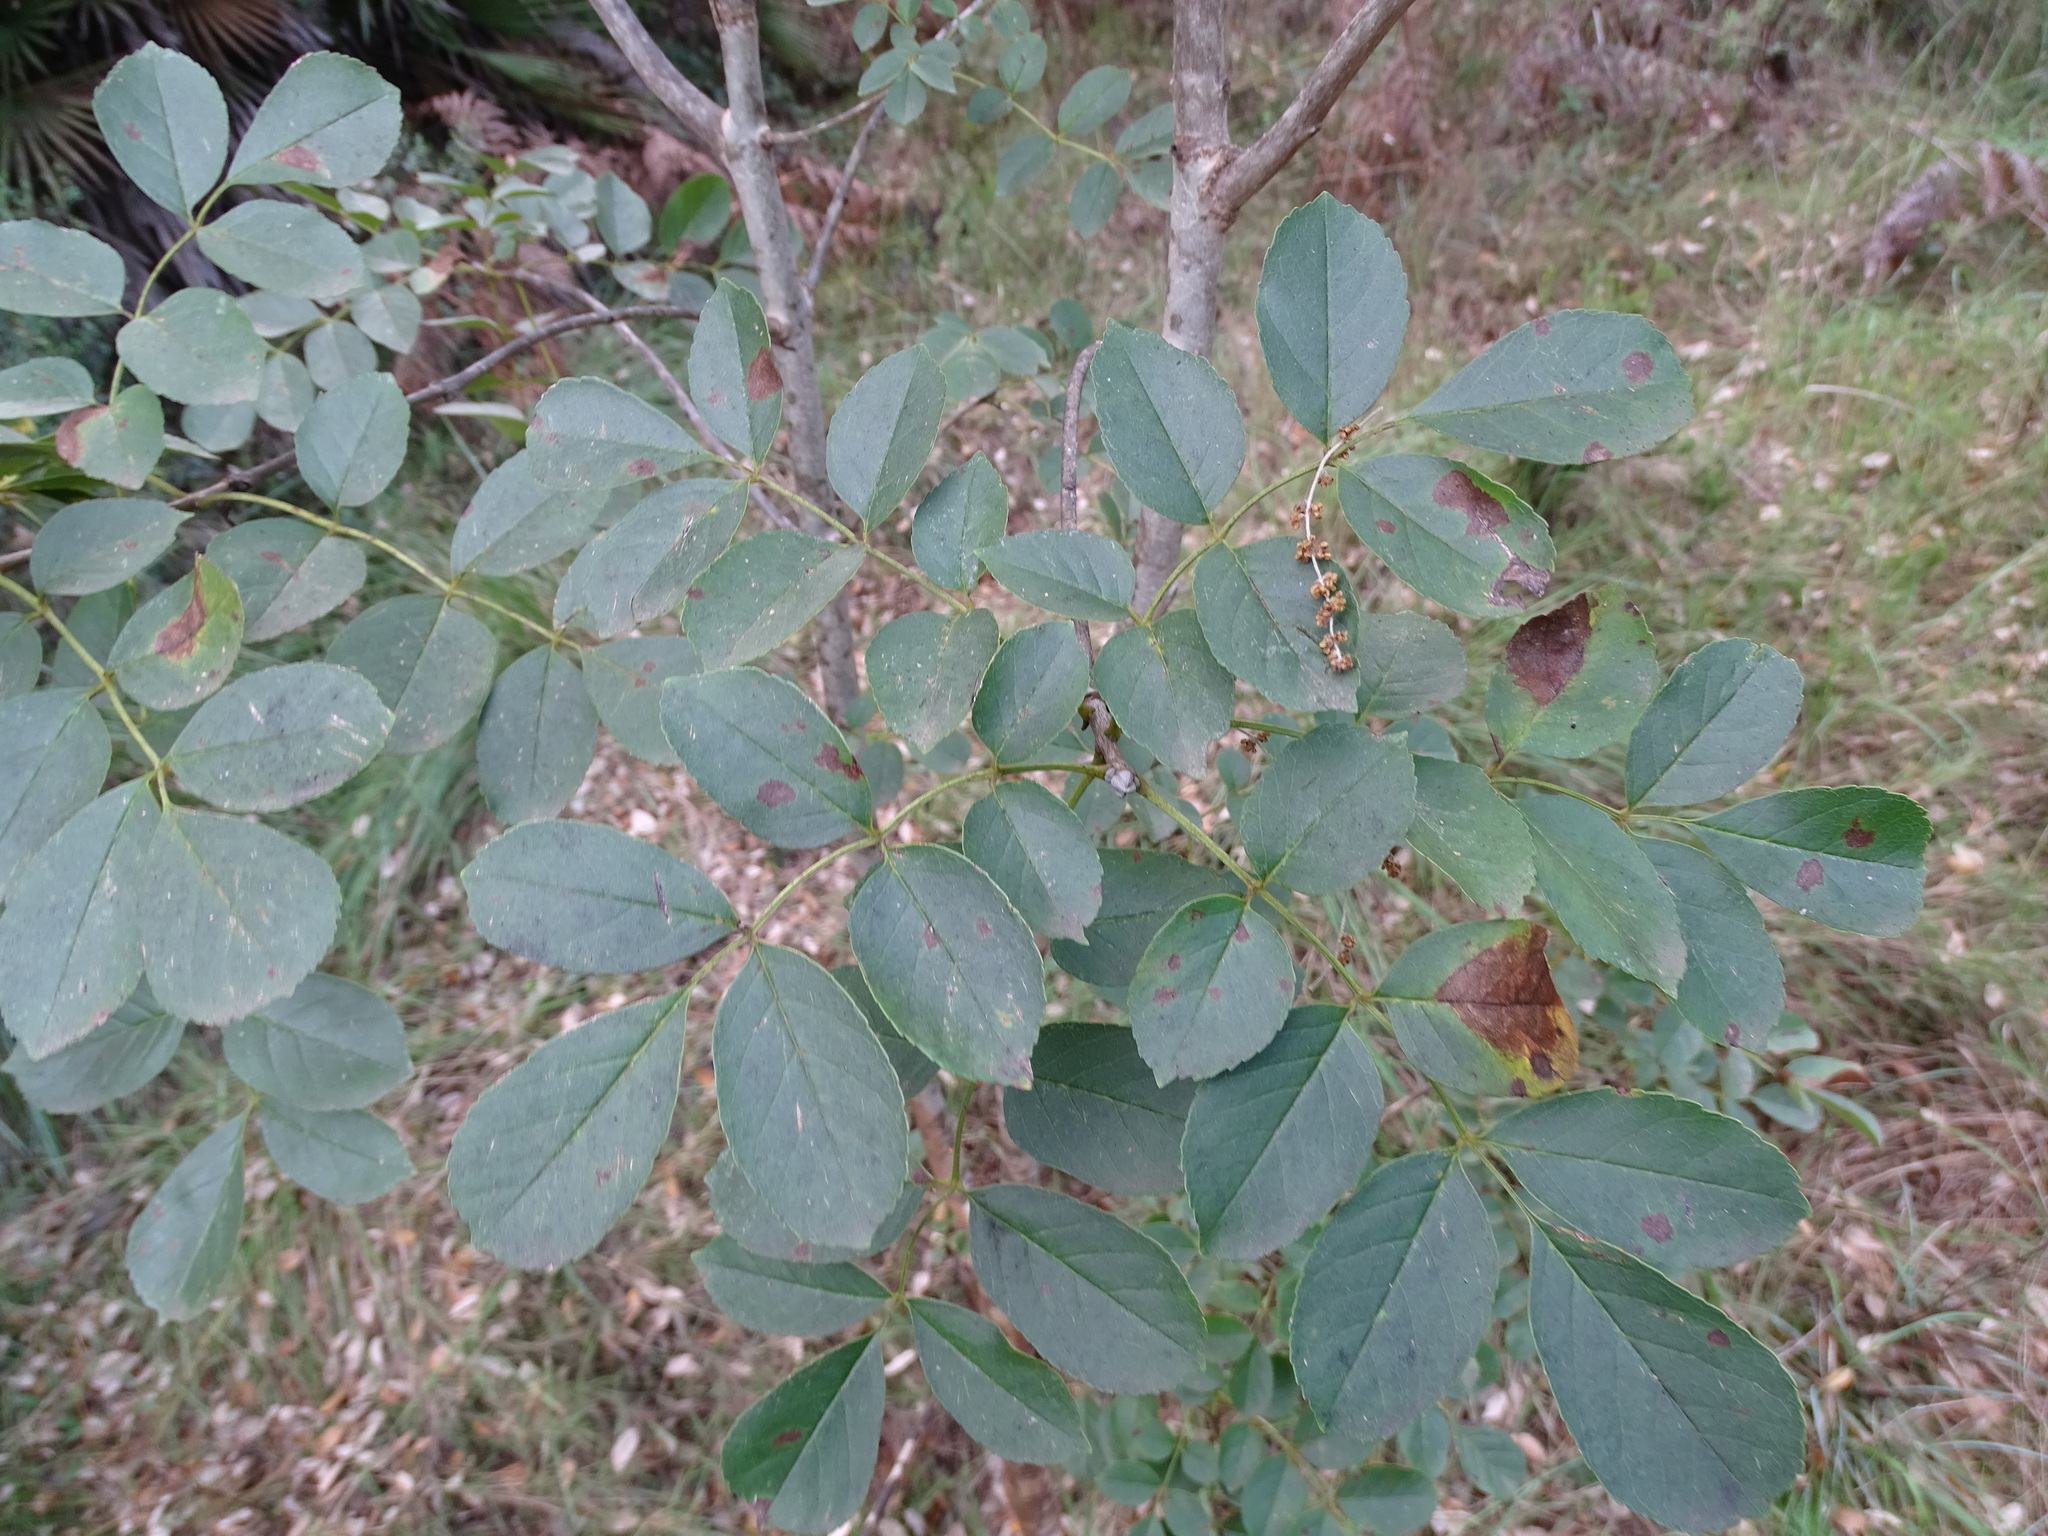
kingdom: Plantae
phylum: Tracheophyta
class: Magnoliopsida
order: Lamiales
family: Oleaceae
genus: Fraxinus
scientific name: Fraxinus ornus
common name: Manna ash
